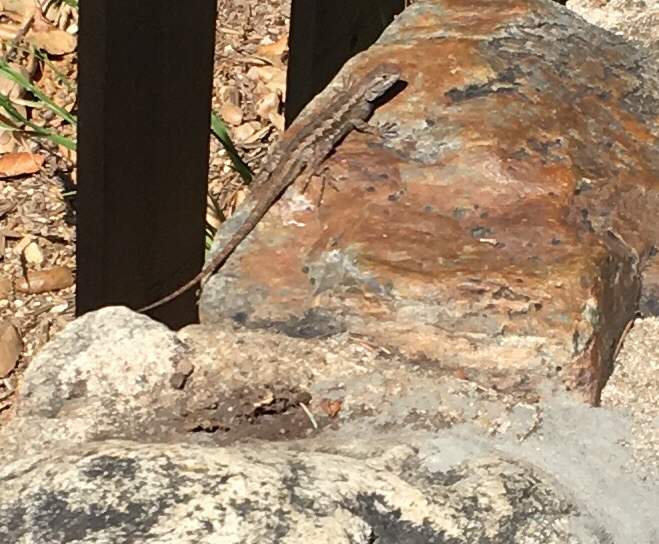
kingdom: Animalia
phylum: Chordata
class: Squamata
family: Phrynosomatidae
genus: Sceloporus
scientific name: Sceloporus occidentalis
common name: Western fence lizard
